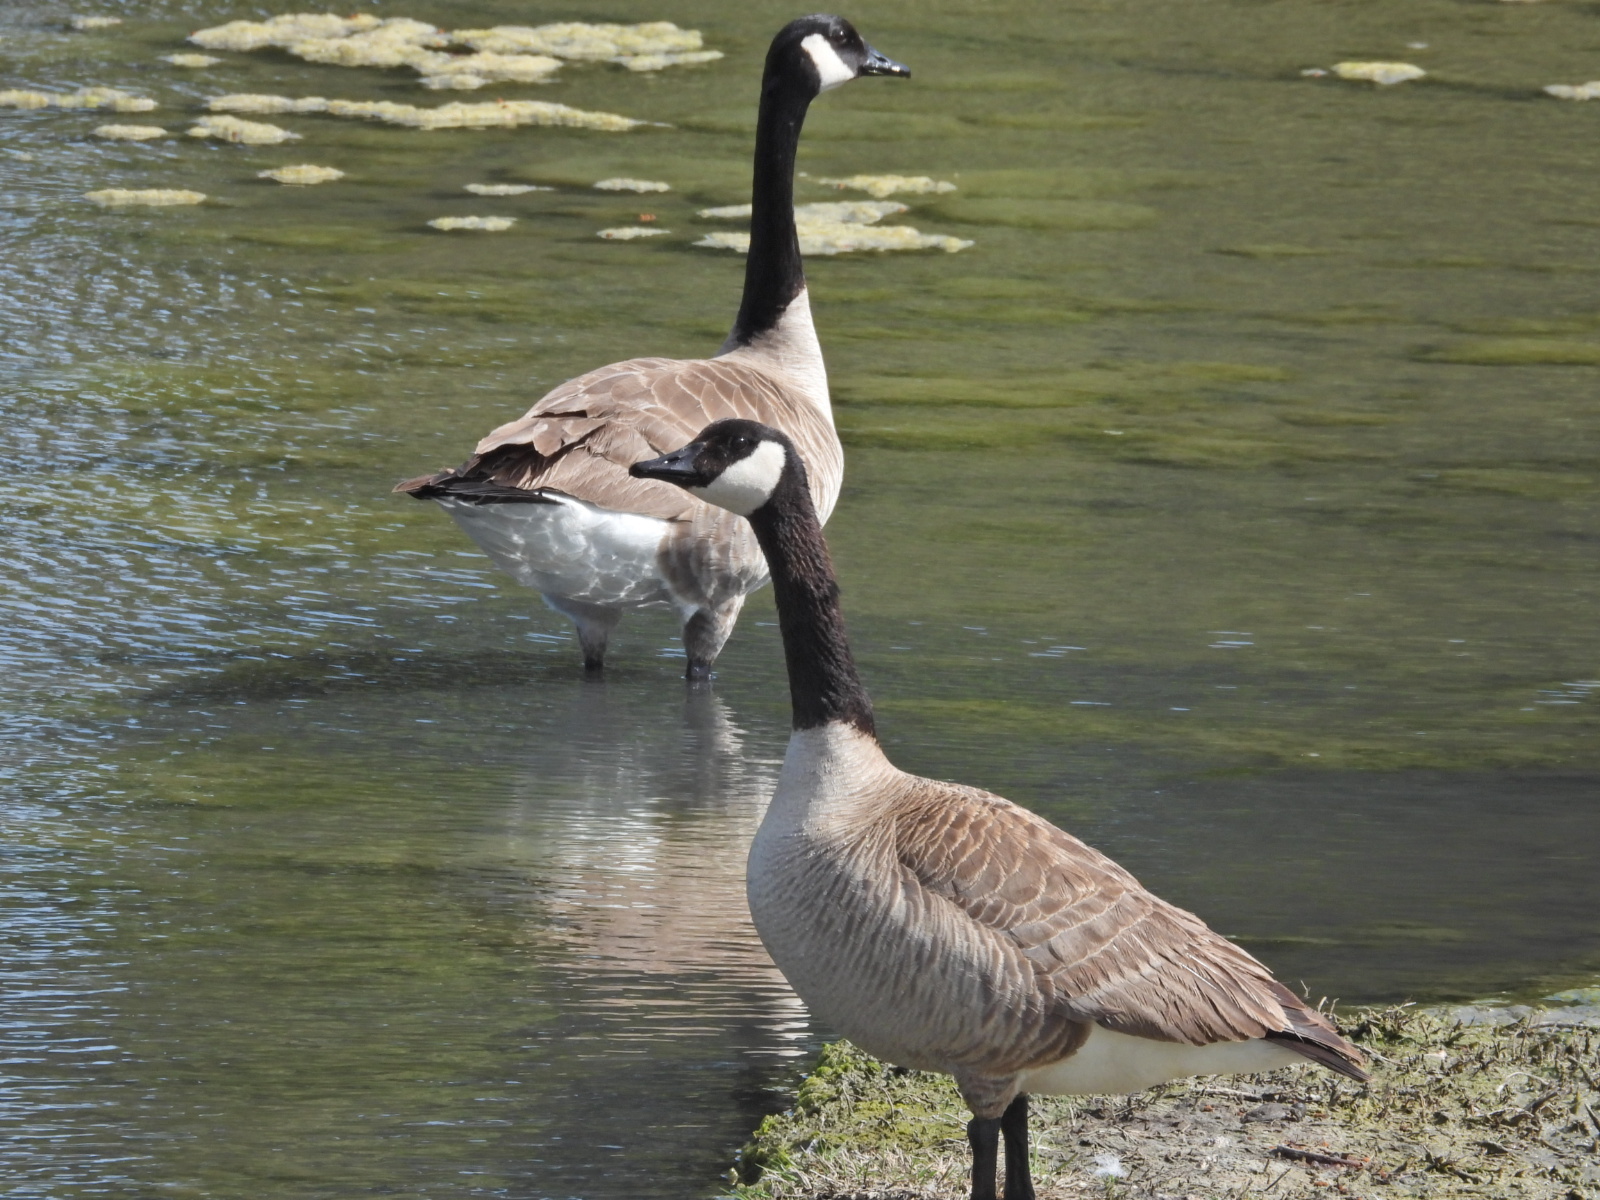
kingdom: Animalia
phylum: Chordata
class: Aves
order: Anseriformes
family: Anatidae
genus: Branta
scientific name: Branta canadensis
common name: Canada goose
